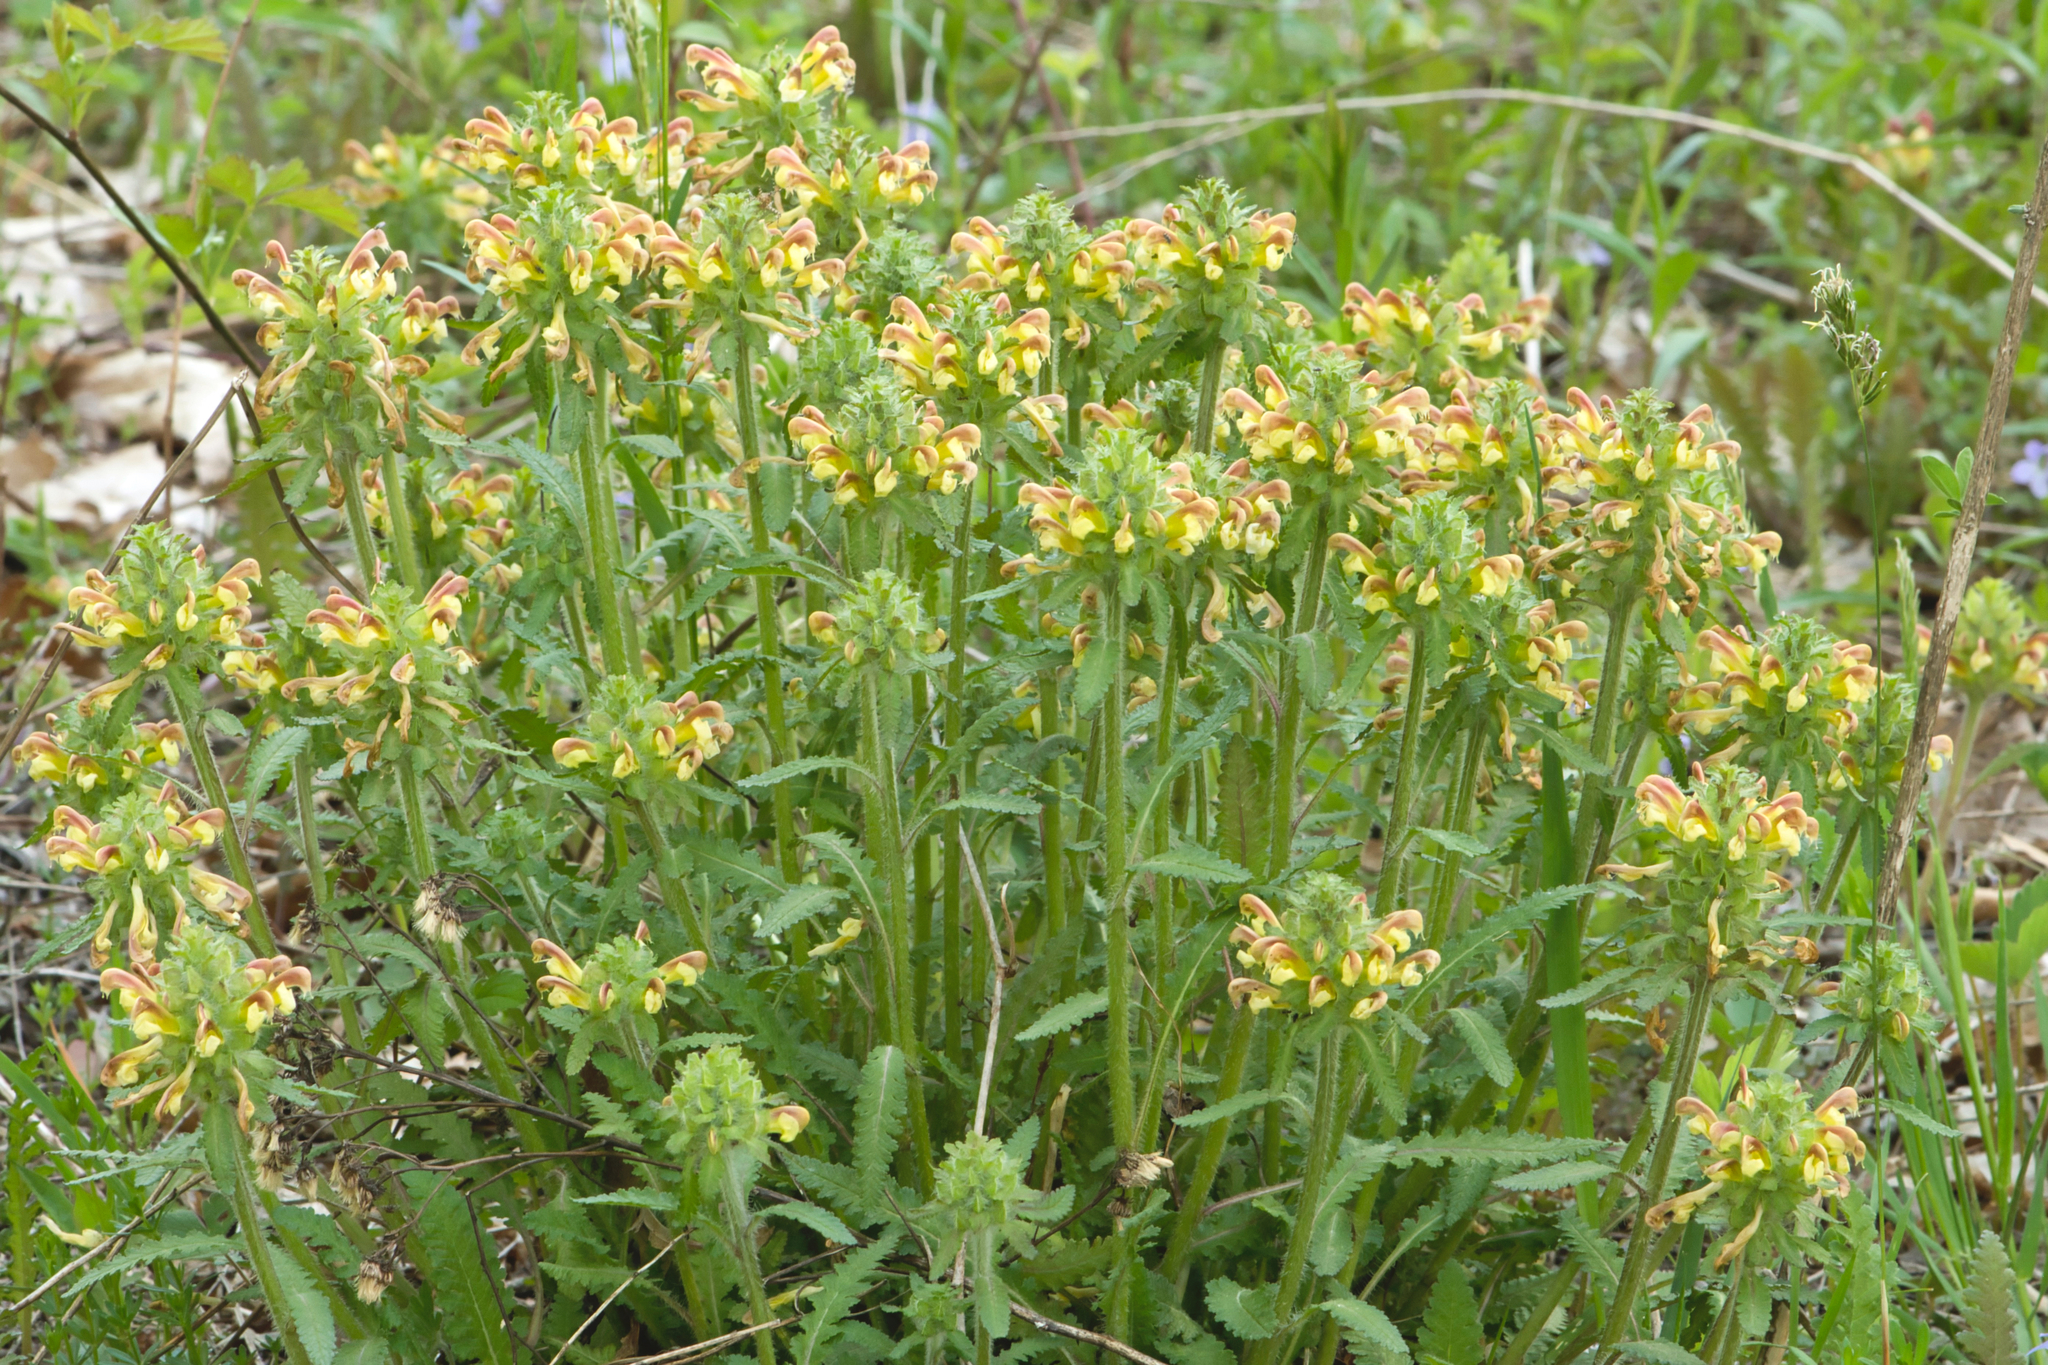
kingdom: Plantae
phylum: Tracheophyta
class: Magnoliopsida
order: Lamiales
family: Orobanchaceae
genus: Pedicularis
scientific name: Pedicularis canadensis
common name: Early lousewort
